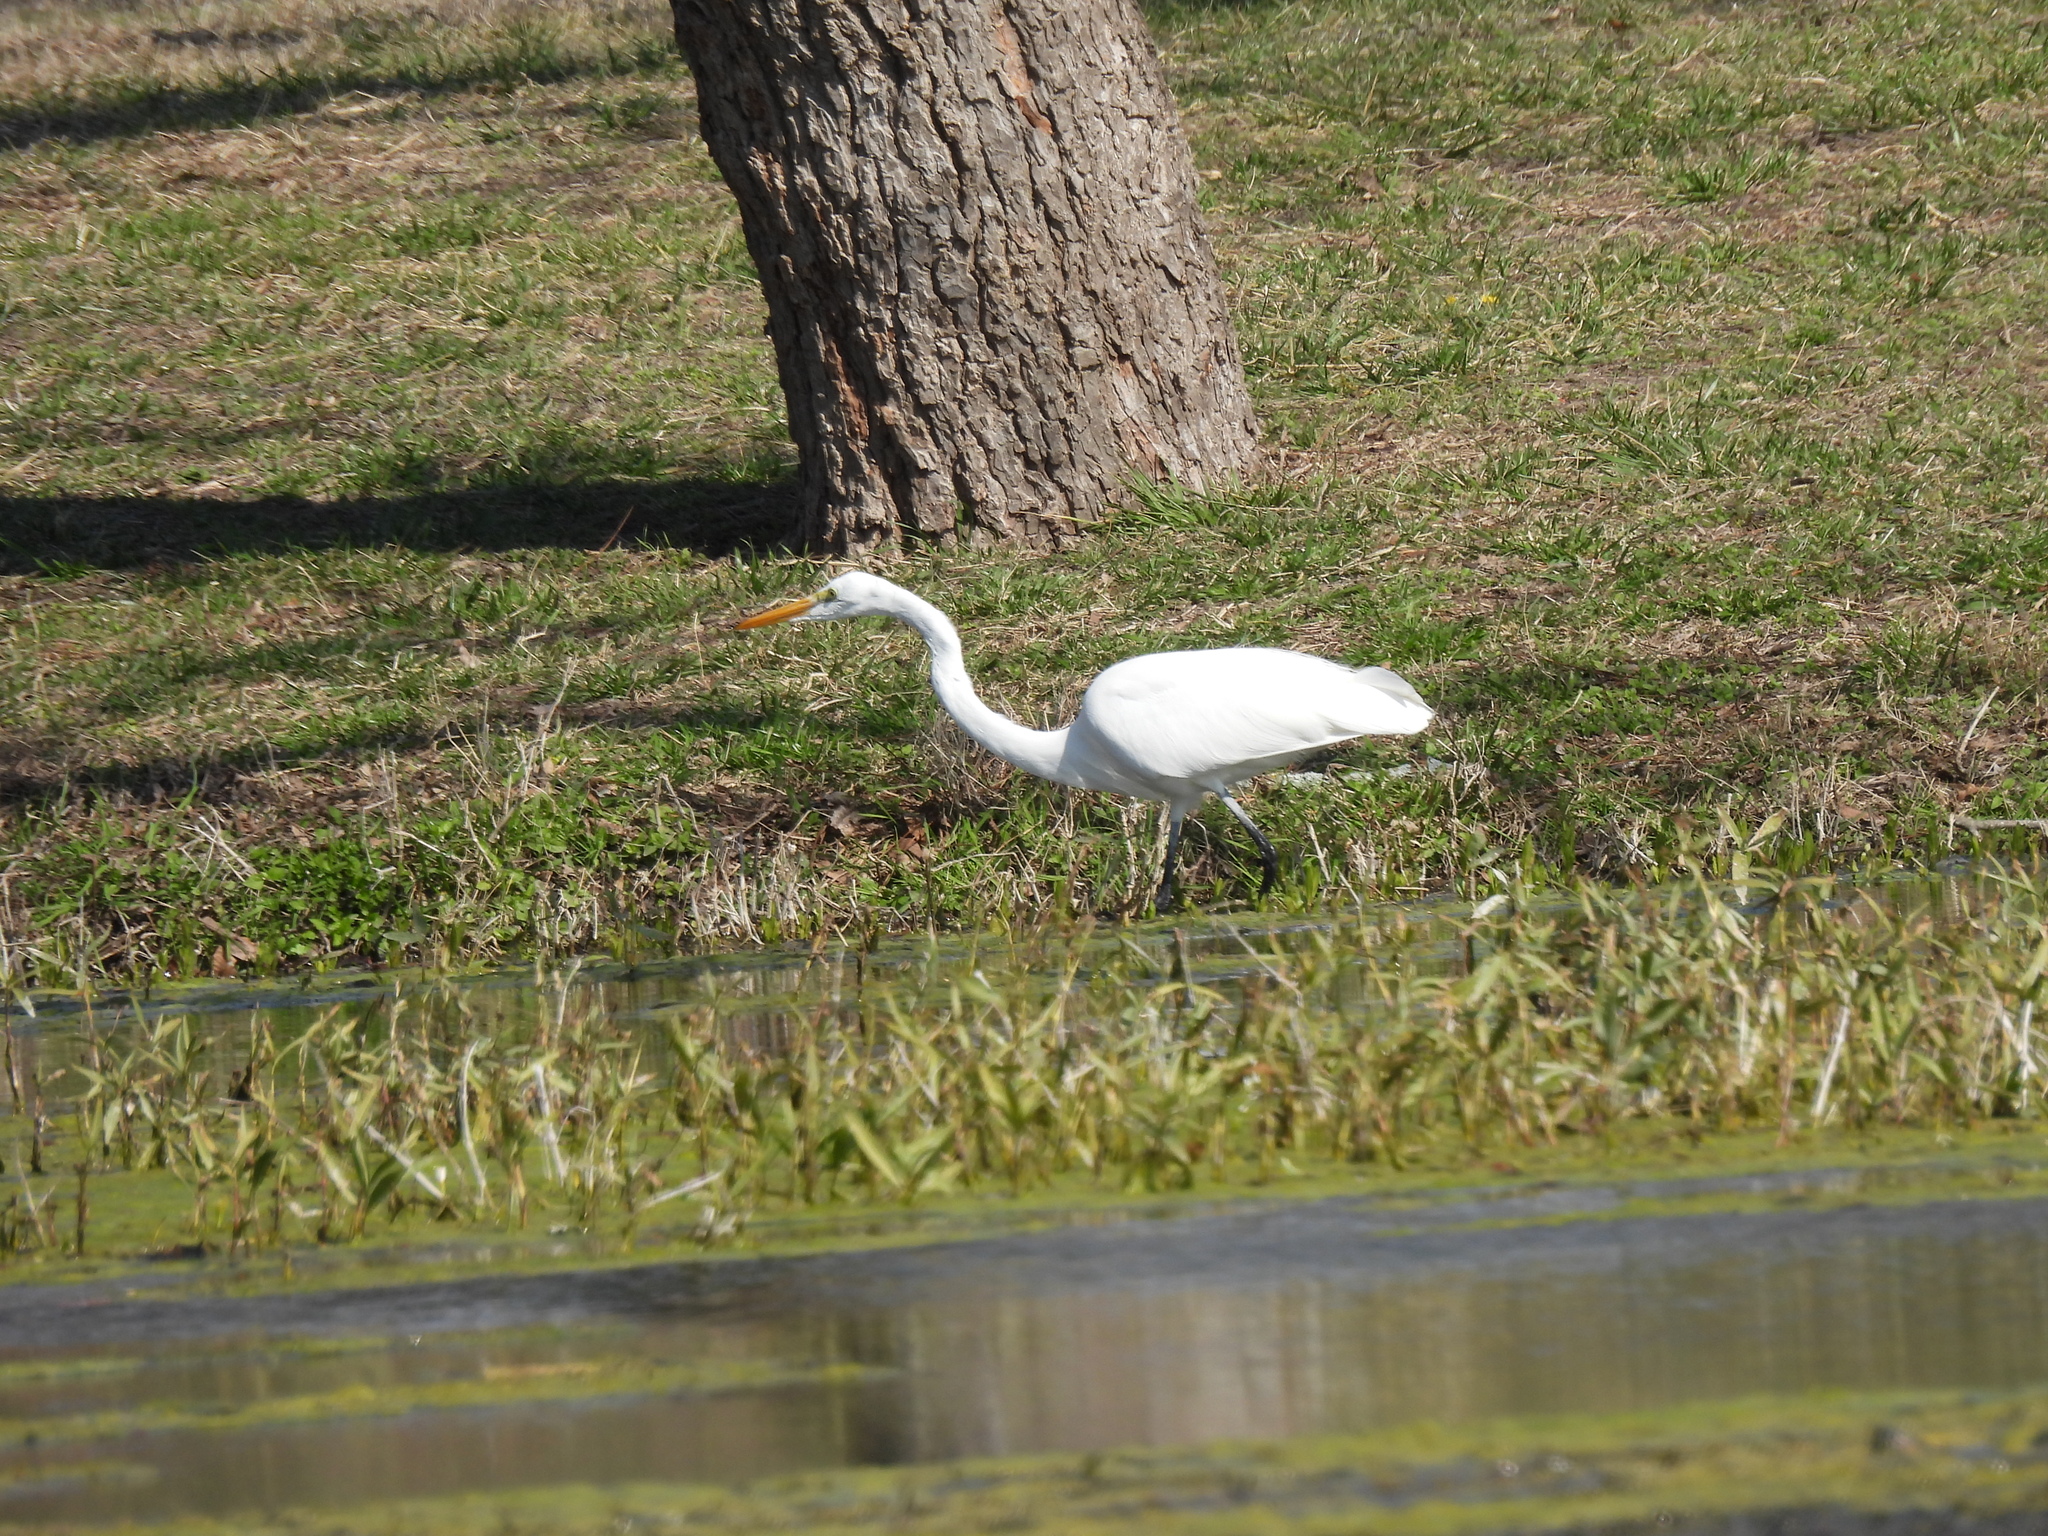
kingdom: Animalia
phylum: Chordata
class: Aves
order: Pelecaniformes
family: Ardeidae
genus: Ardea
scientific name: Ardea alba
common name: Great egret
